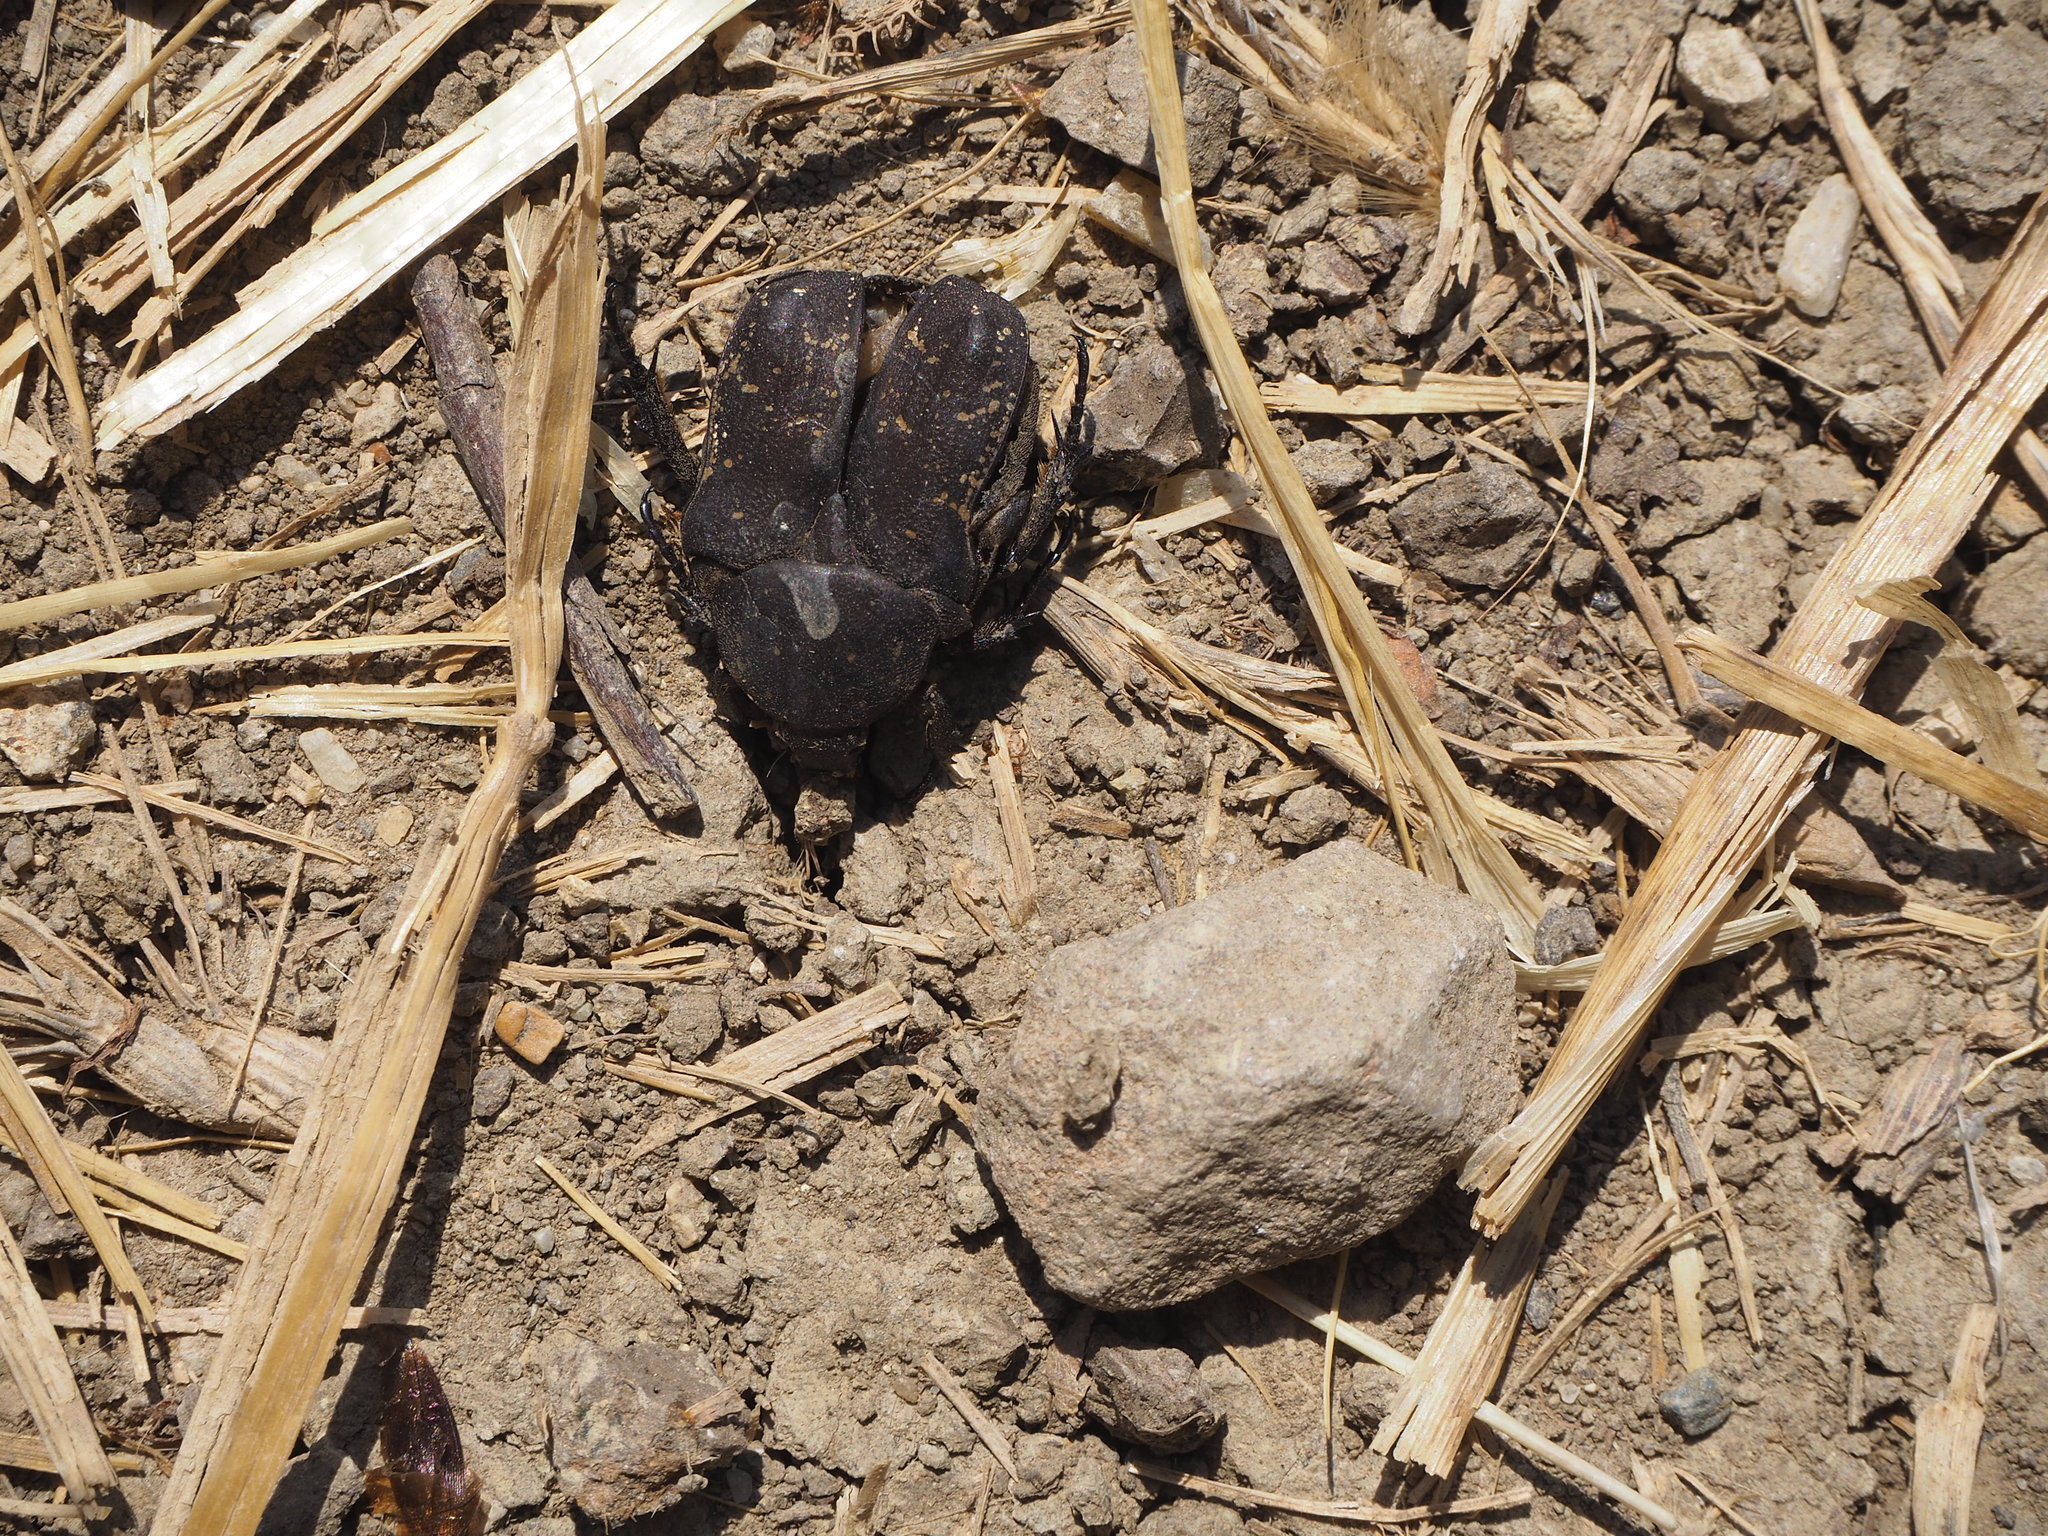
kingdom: Animalia
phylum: Arthropoda
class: Insecta
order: Coleoptera
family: Scarabaeidae
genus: Protaetia
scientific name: Protaetia morio
